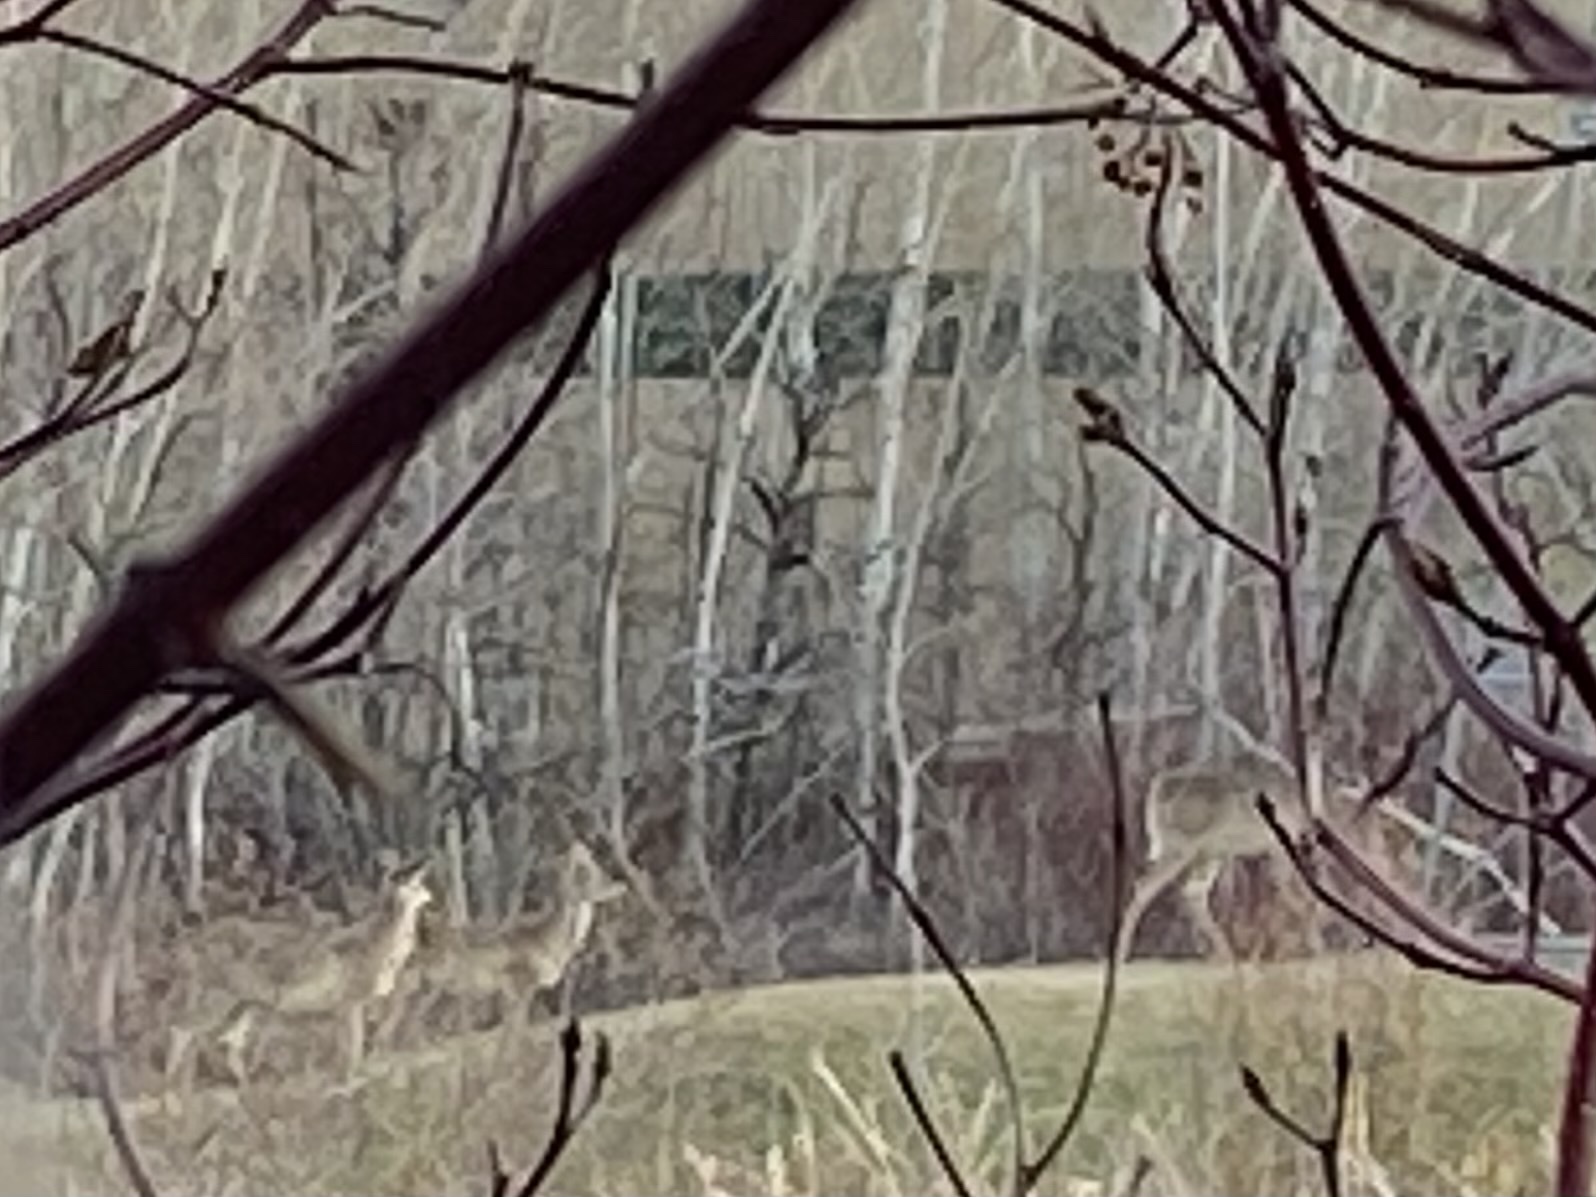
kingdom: Animalia
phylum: Chordata
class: Mammalia
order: Artiodactyla
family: Cervidae
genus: Odocoileus
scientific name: Odocoileus virginianus
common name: White-tailed deer
